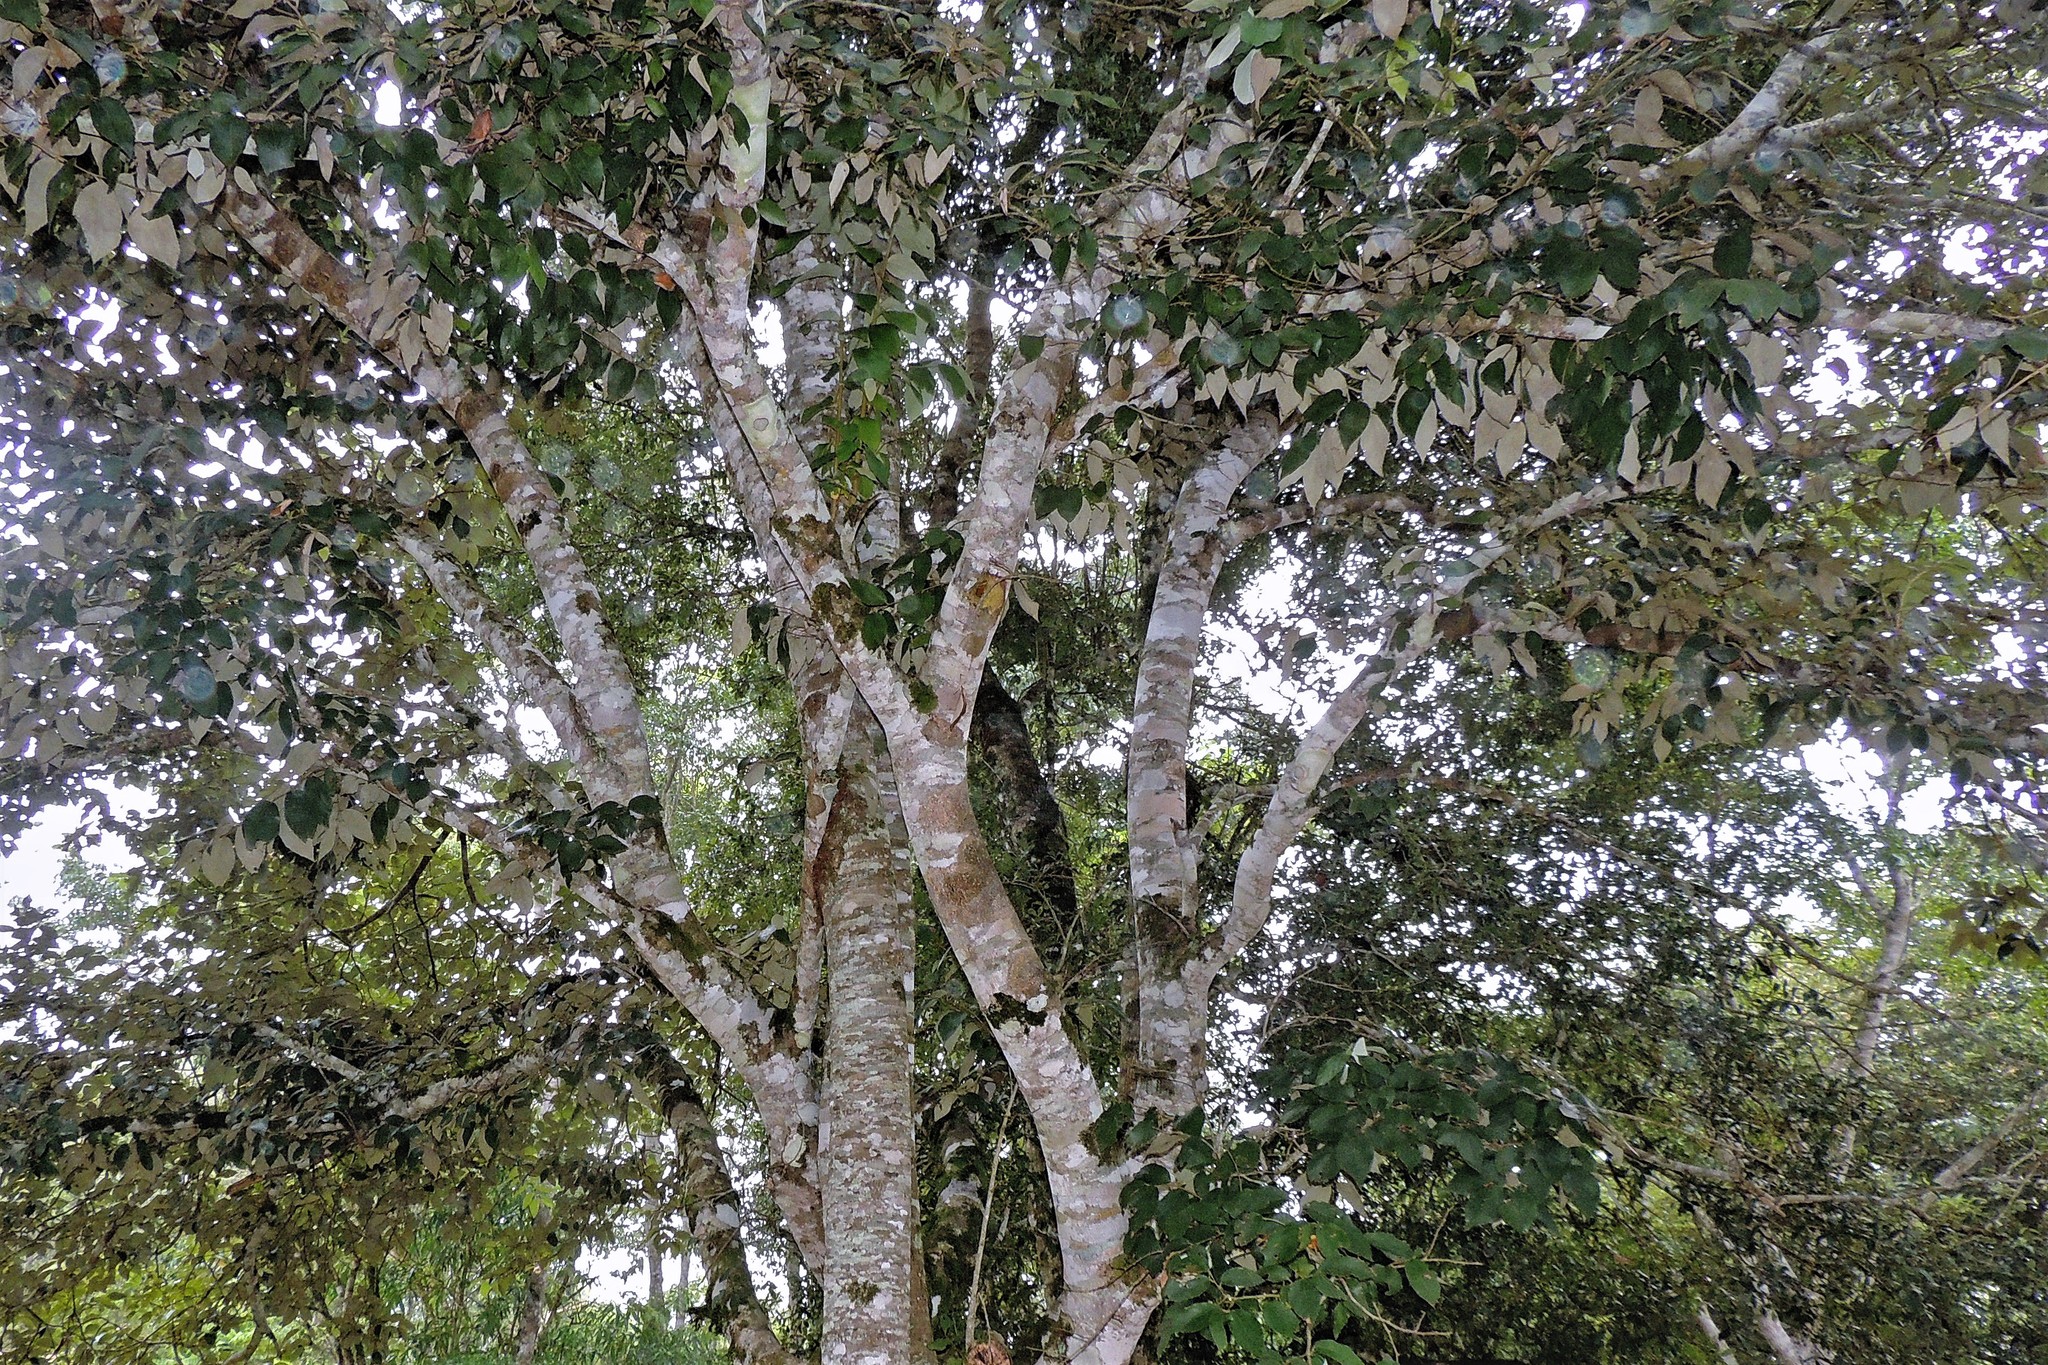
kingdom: Plantae
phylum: Tracheophyta
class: Magnoliopsida
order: Malvales
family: Malvaceae
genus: Luehea
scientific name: Luehea divaricata
